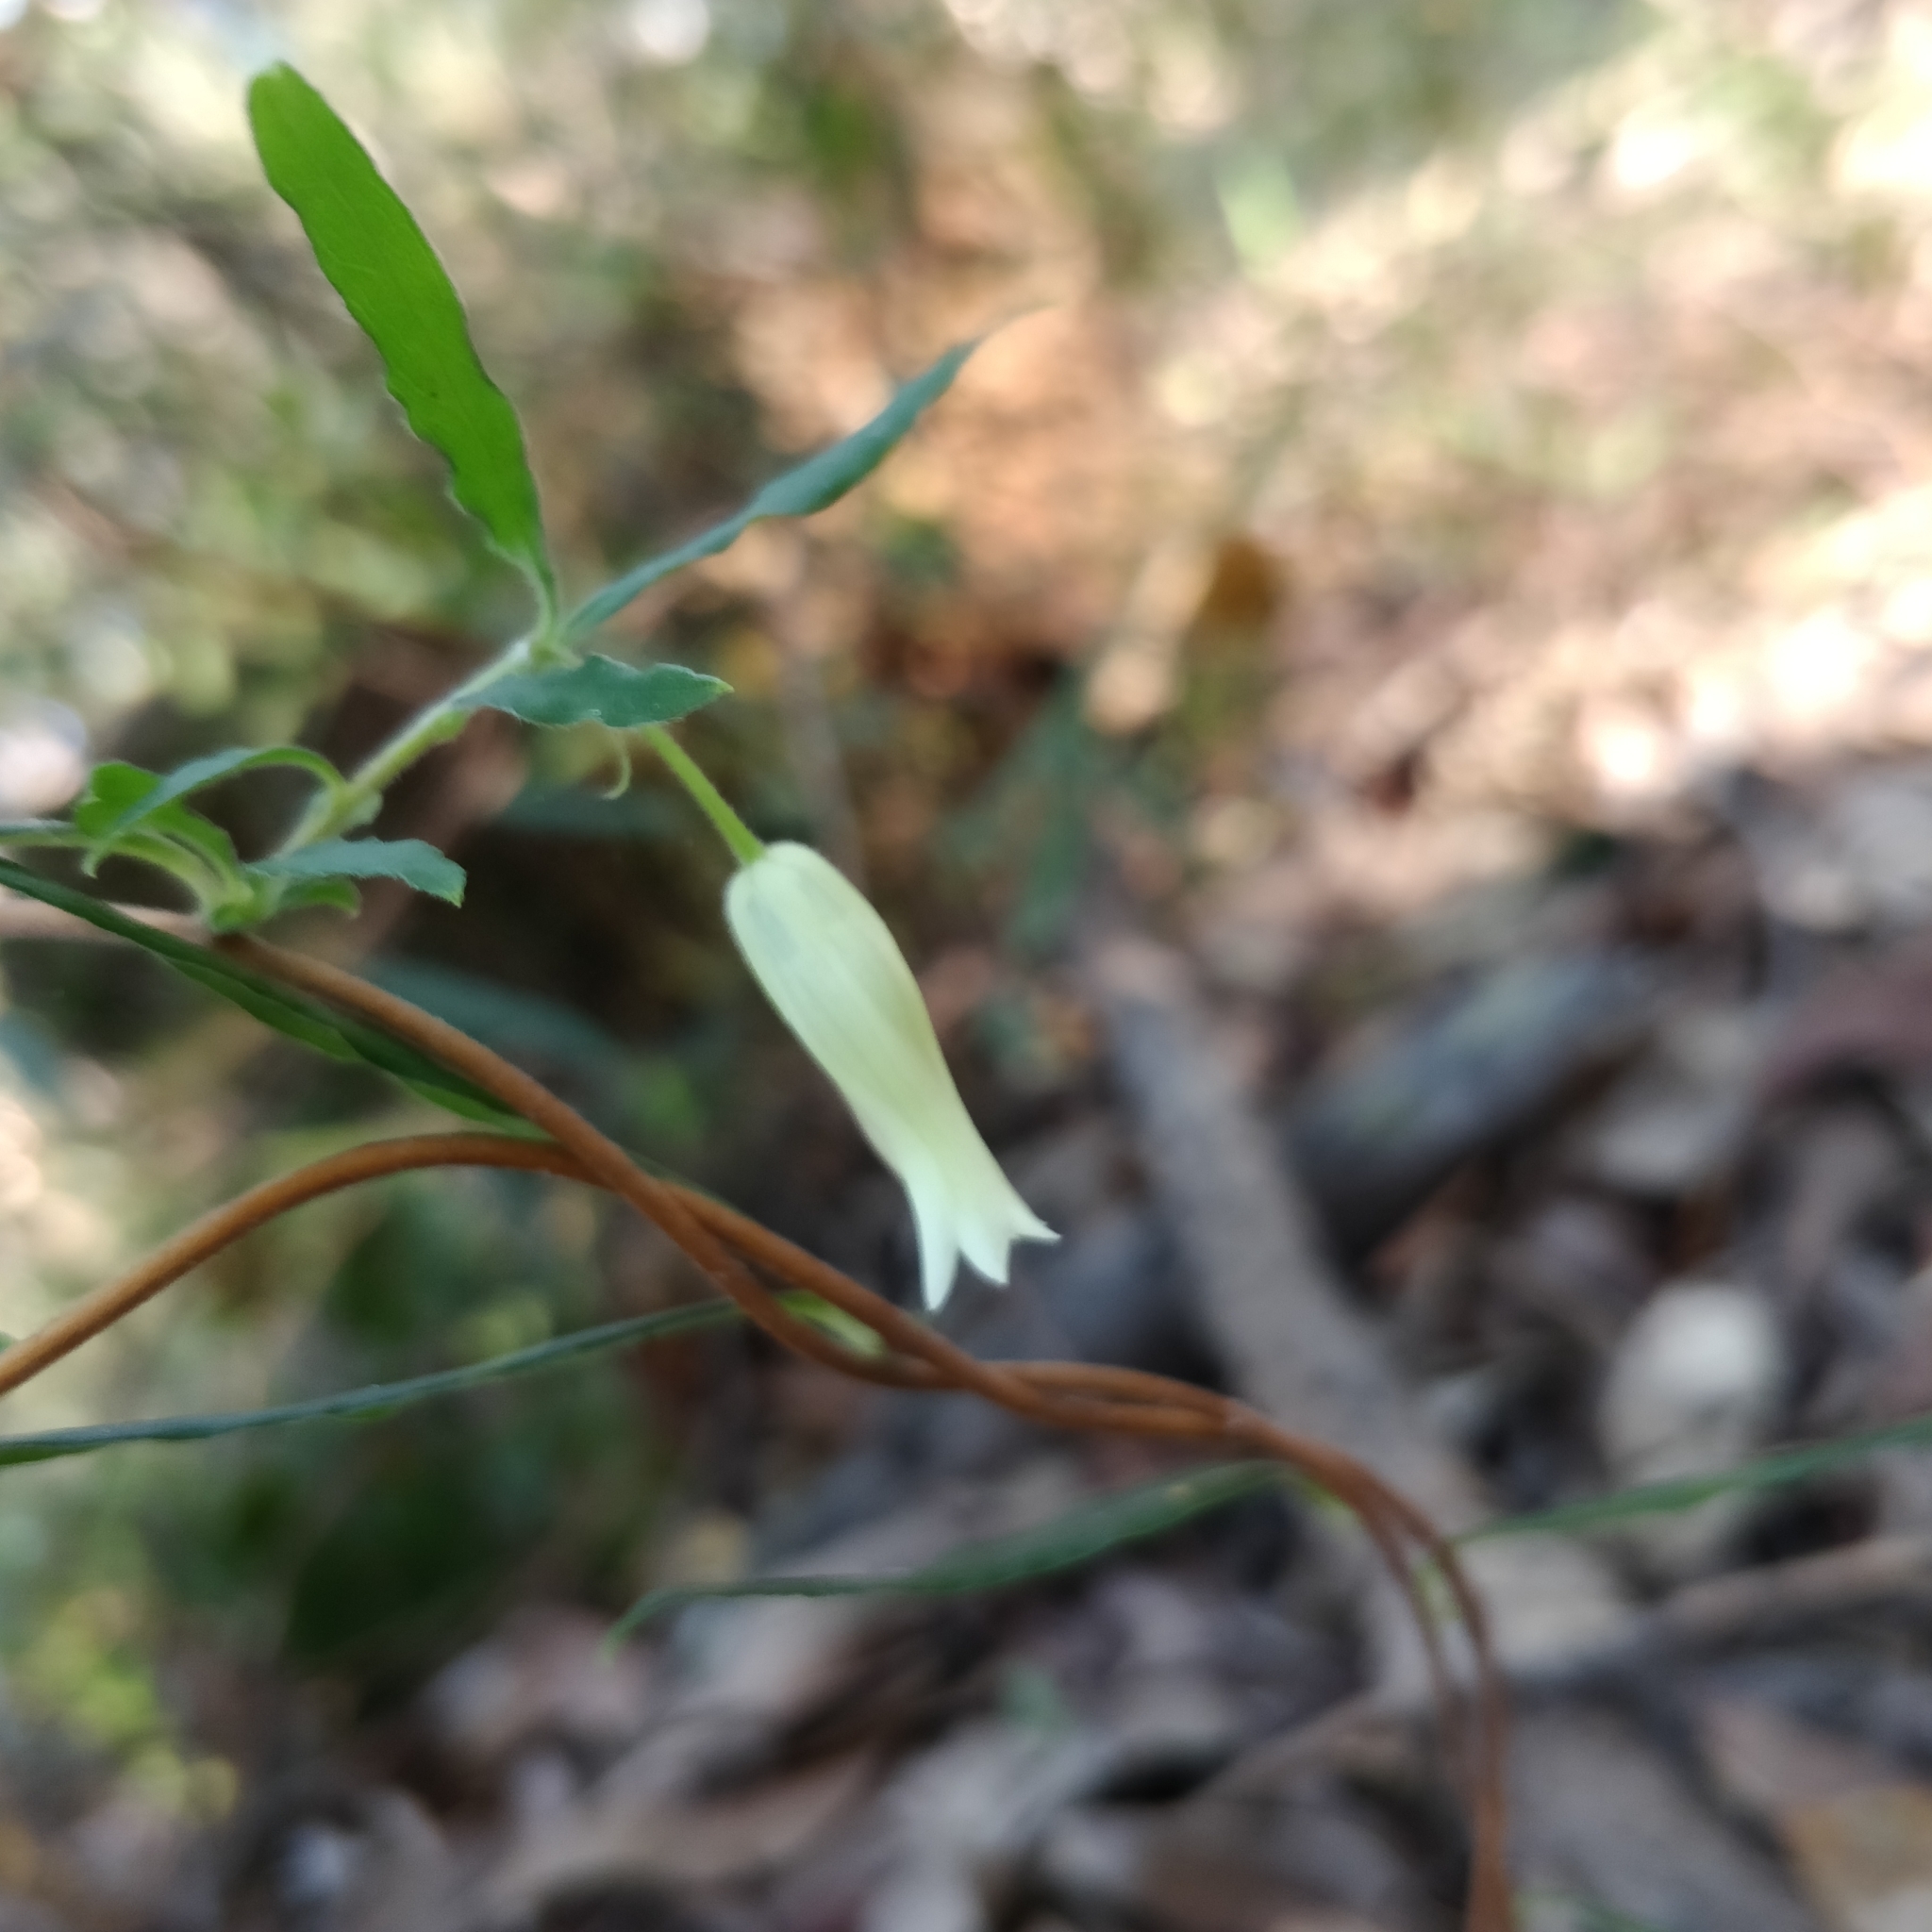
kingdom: Plantae
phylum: Tracheophyta
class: Magnoliopsida
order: Apiales
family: Pittosporaceae
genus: Billardiera
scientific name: Billardiera scandens
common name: Apple-berry
